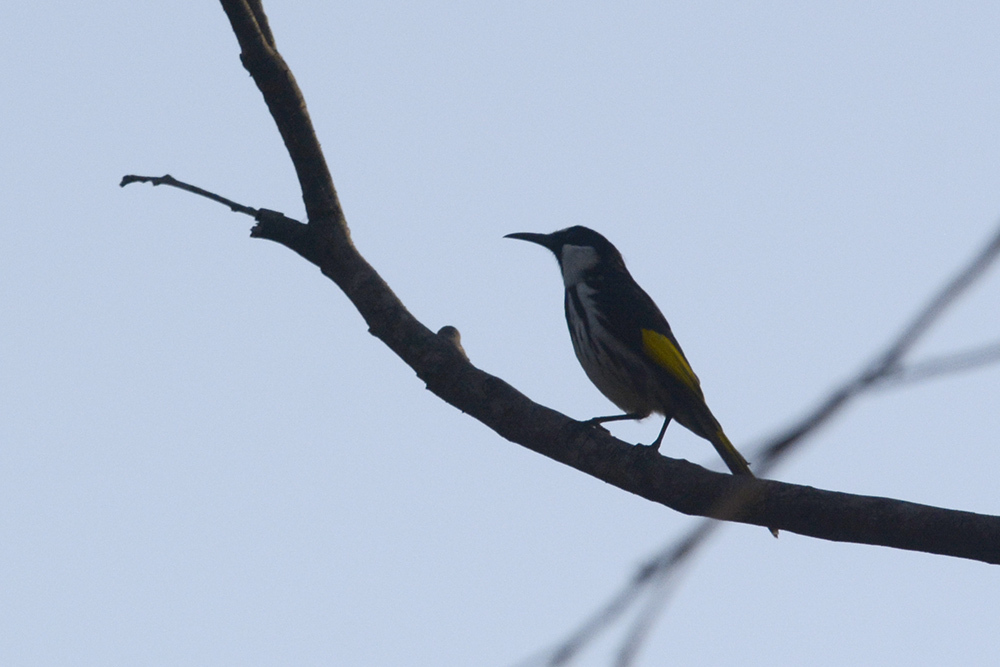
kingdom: Animalia
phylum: Chordata
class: Aves
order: Passeriformes
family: Meliphagidae
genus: Phylidonyris
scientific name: Phylidonyris niger
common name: White-cheeked honeyeater
